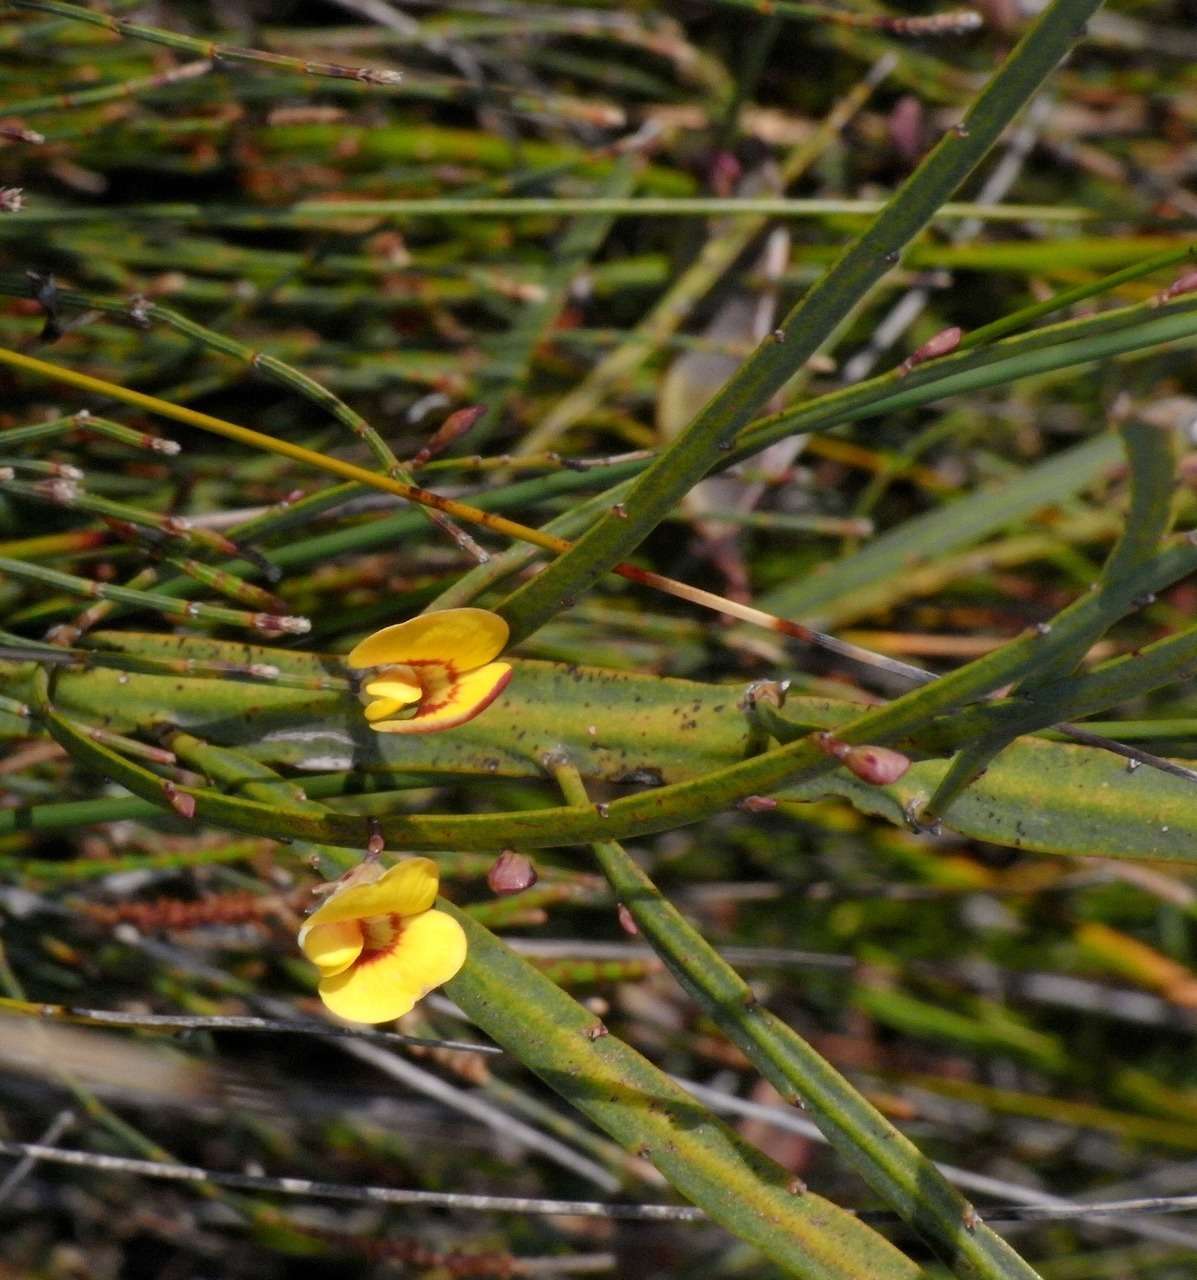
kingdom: Plantae
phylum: Tracheophyta
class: Magnoliopsida
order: Fabales
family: Fabaceae
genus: Bossiaea
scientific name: Bossiaea ensata
